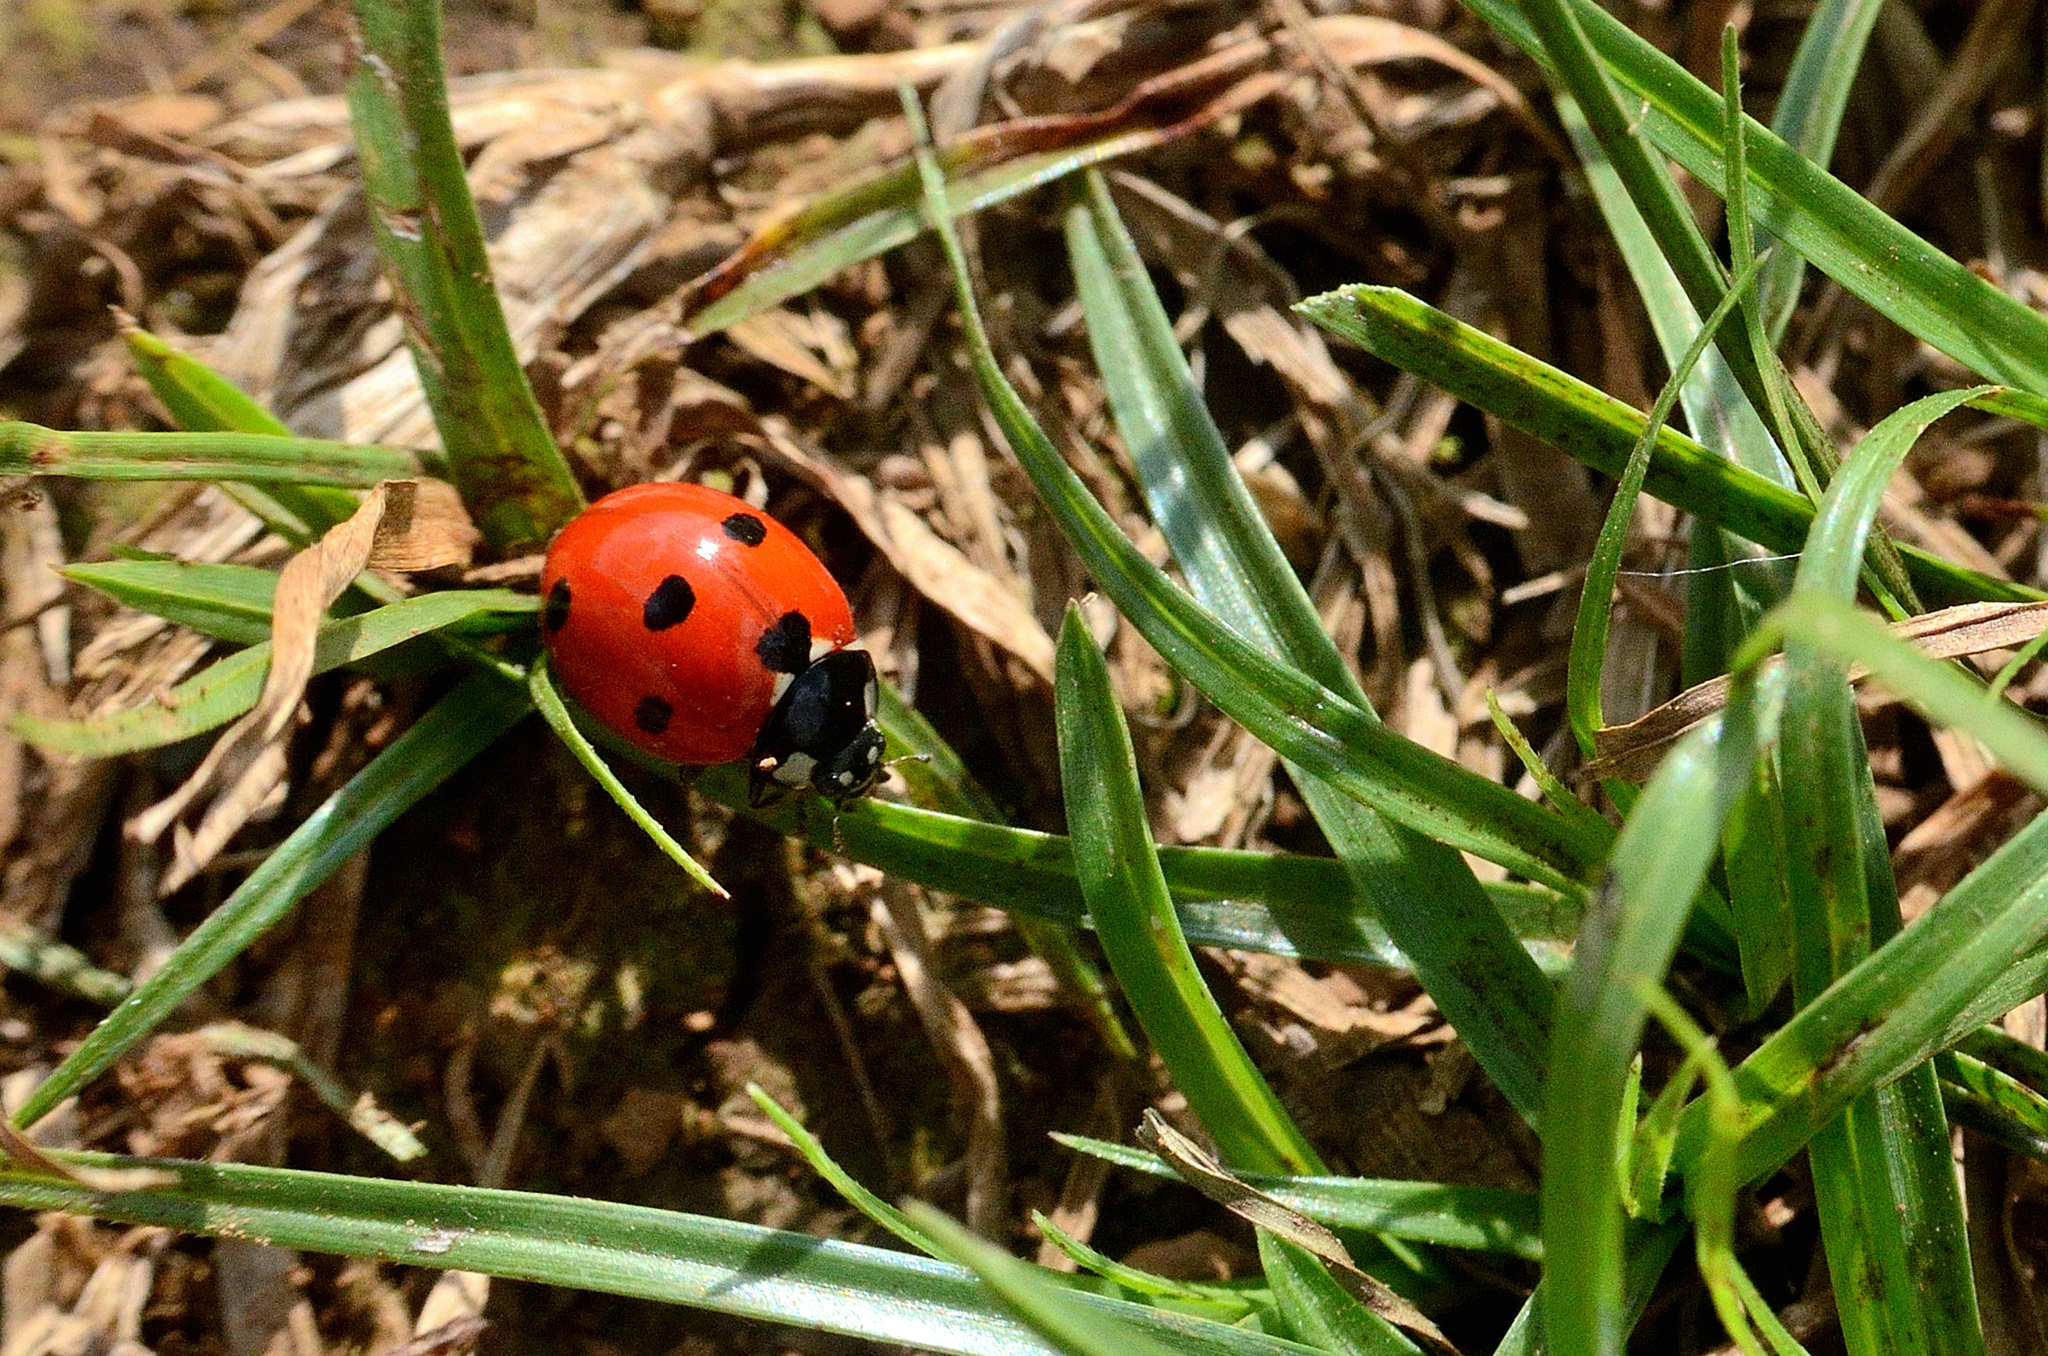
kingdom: Animalia
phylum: Arthropoda
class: Insecta
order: Coleoptera
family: Coccinellidae
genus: Coccinella
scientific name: Coccinella septempunctata
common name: Sevenspotted lady beetle
